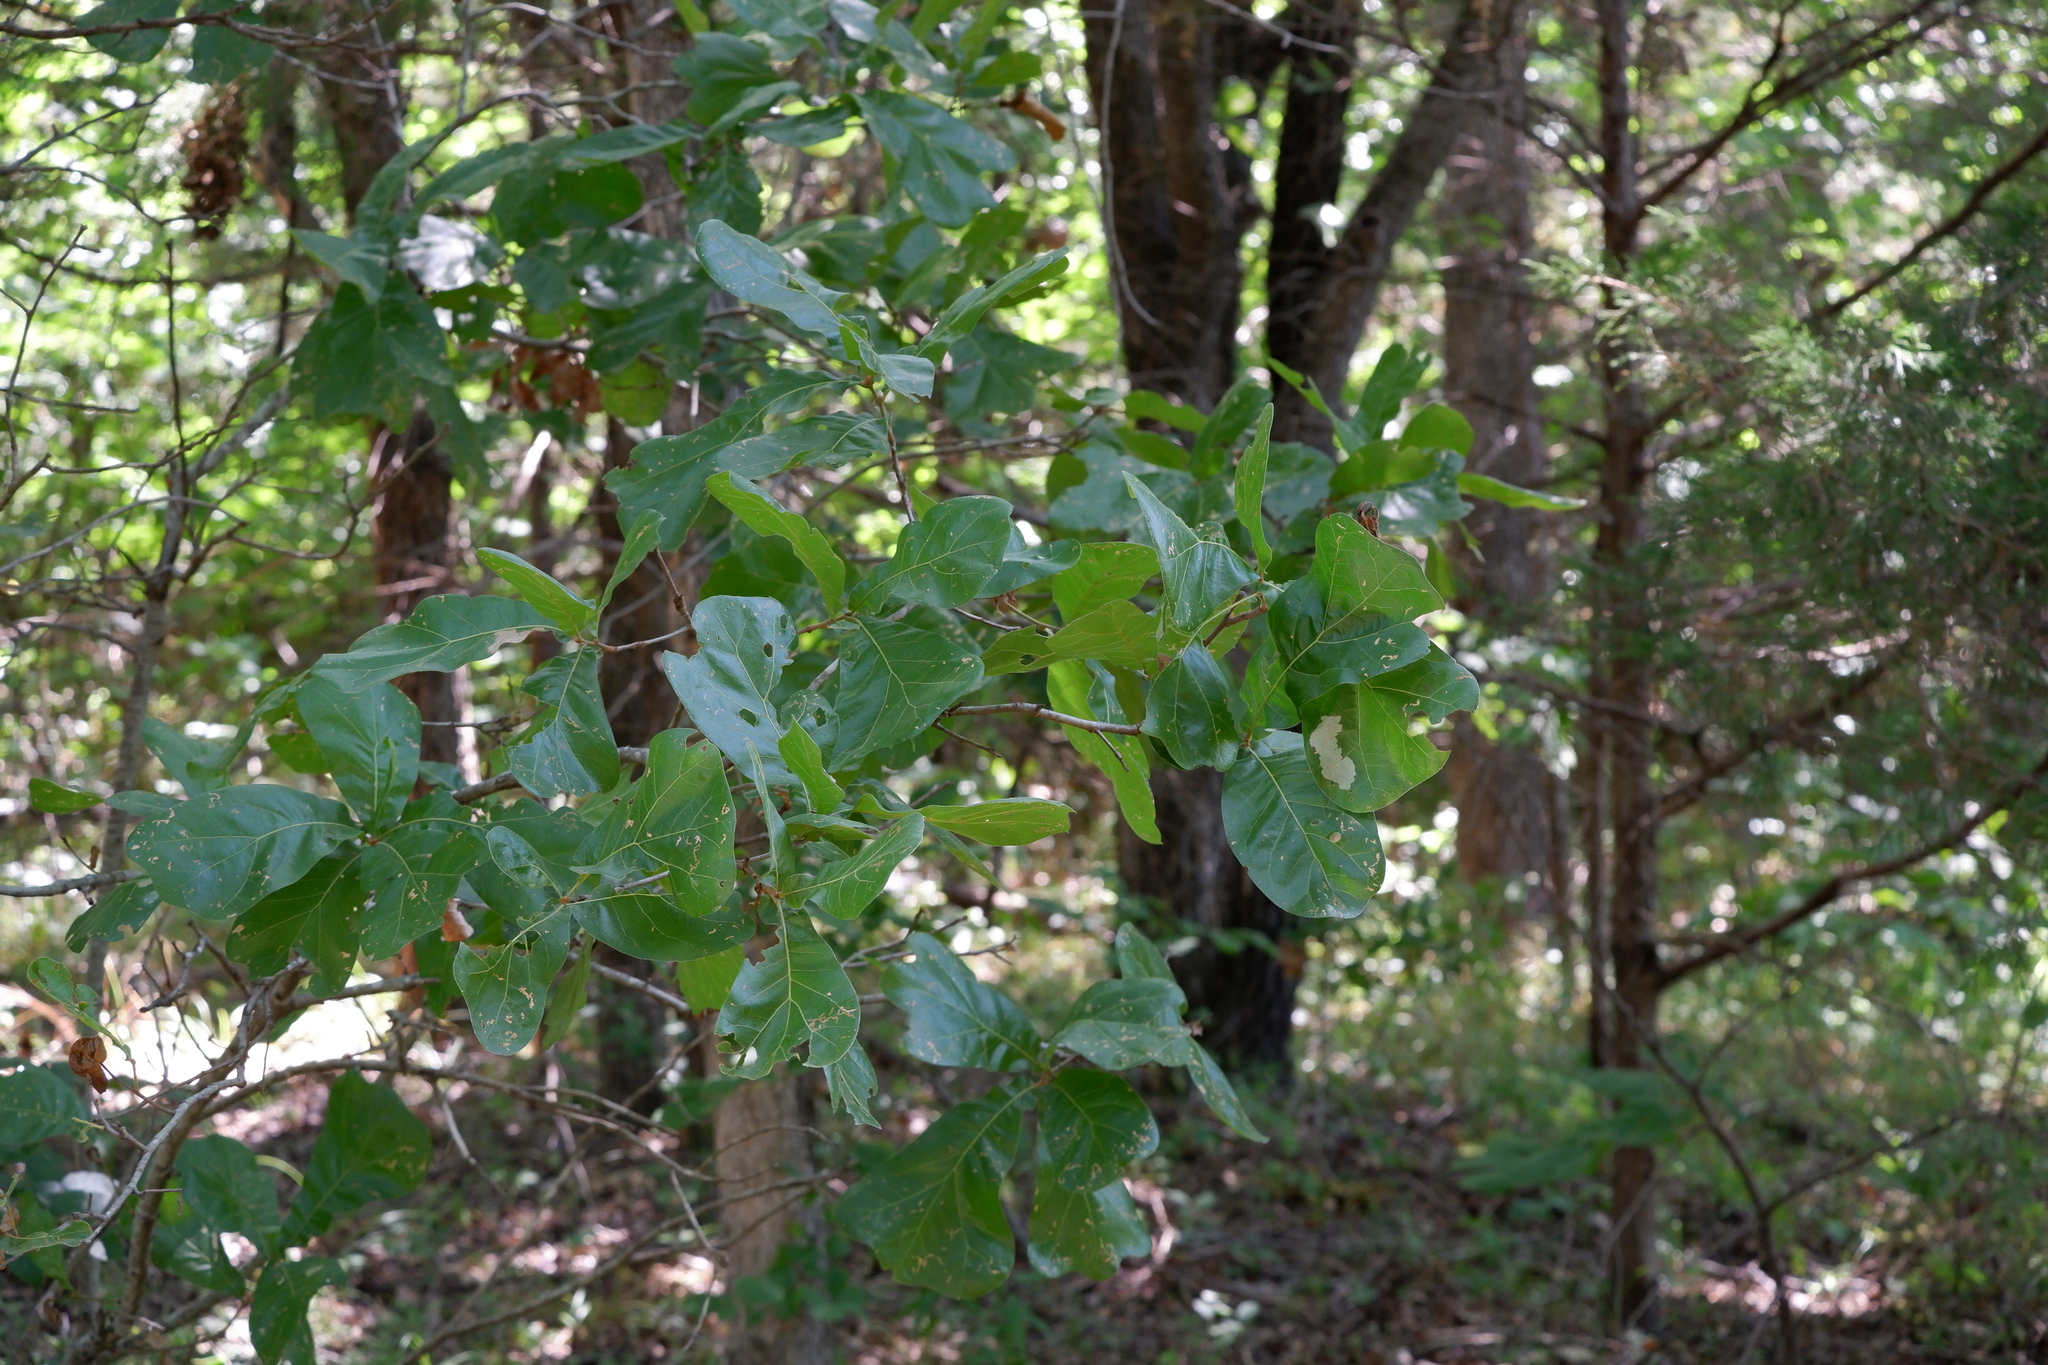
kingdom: Plantae
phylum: Tracheophyta
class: Magnoliopsida
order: Fagales
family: Fagaceae
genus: Quercus
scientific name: Quercus marilandica
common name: Blackjack oak
